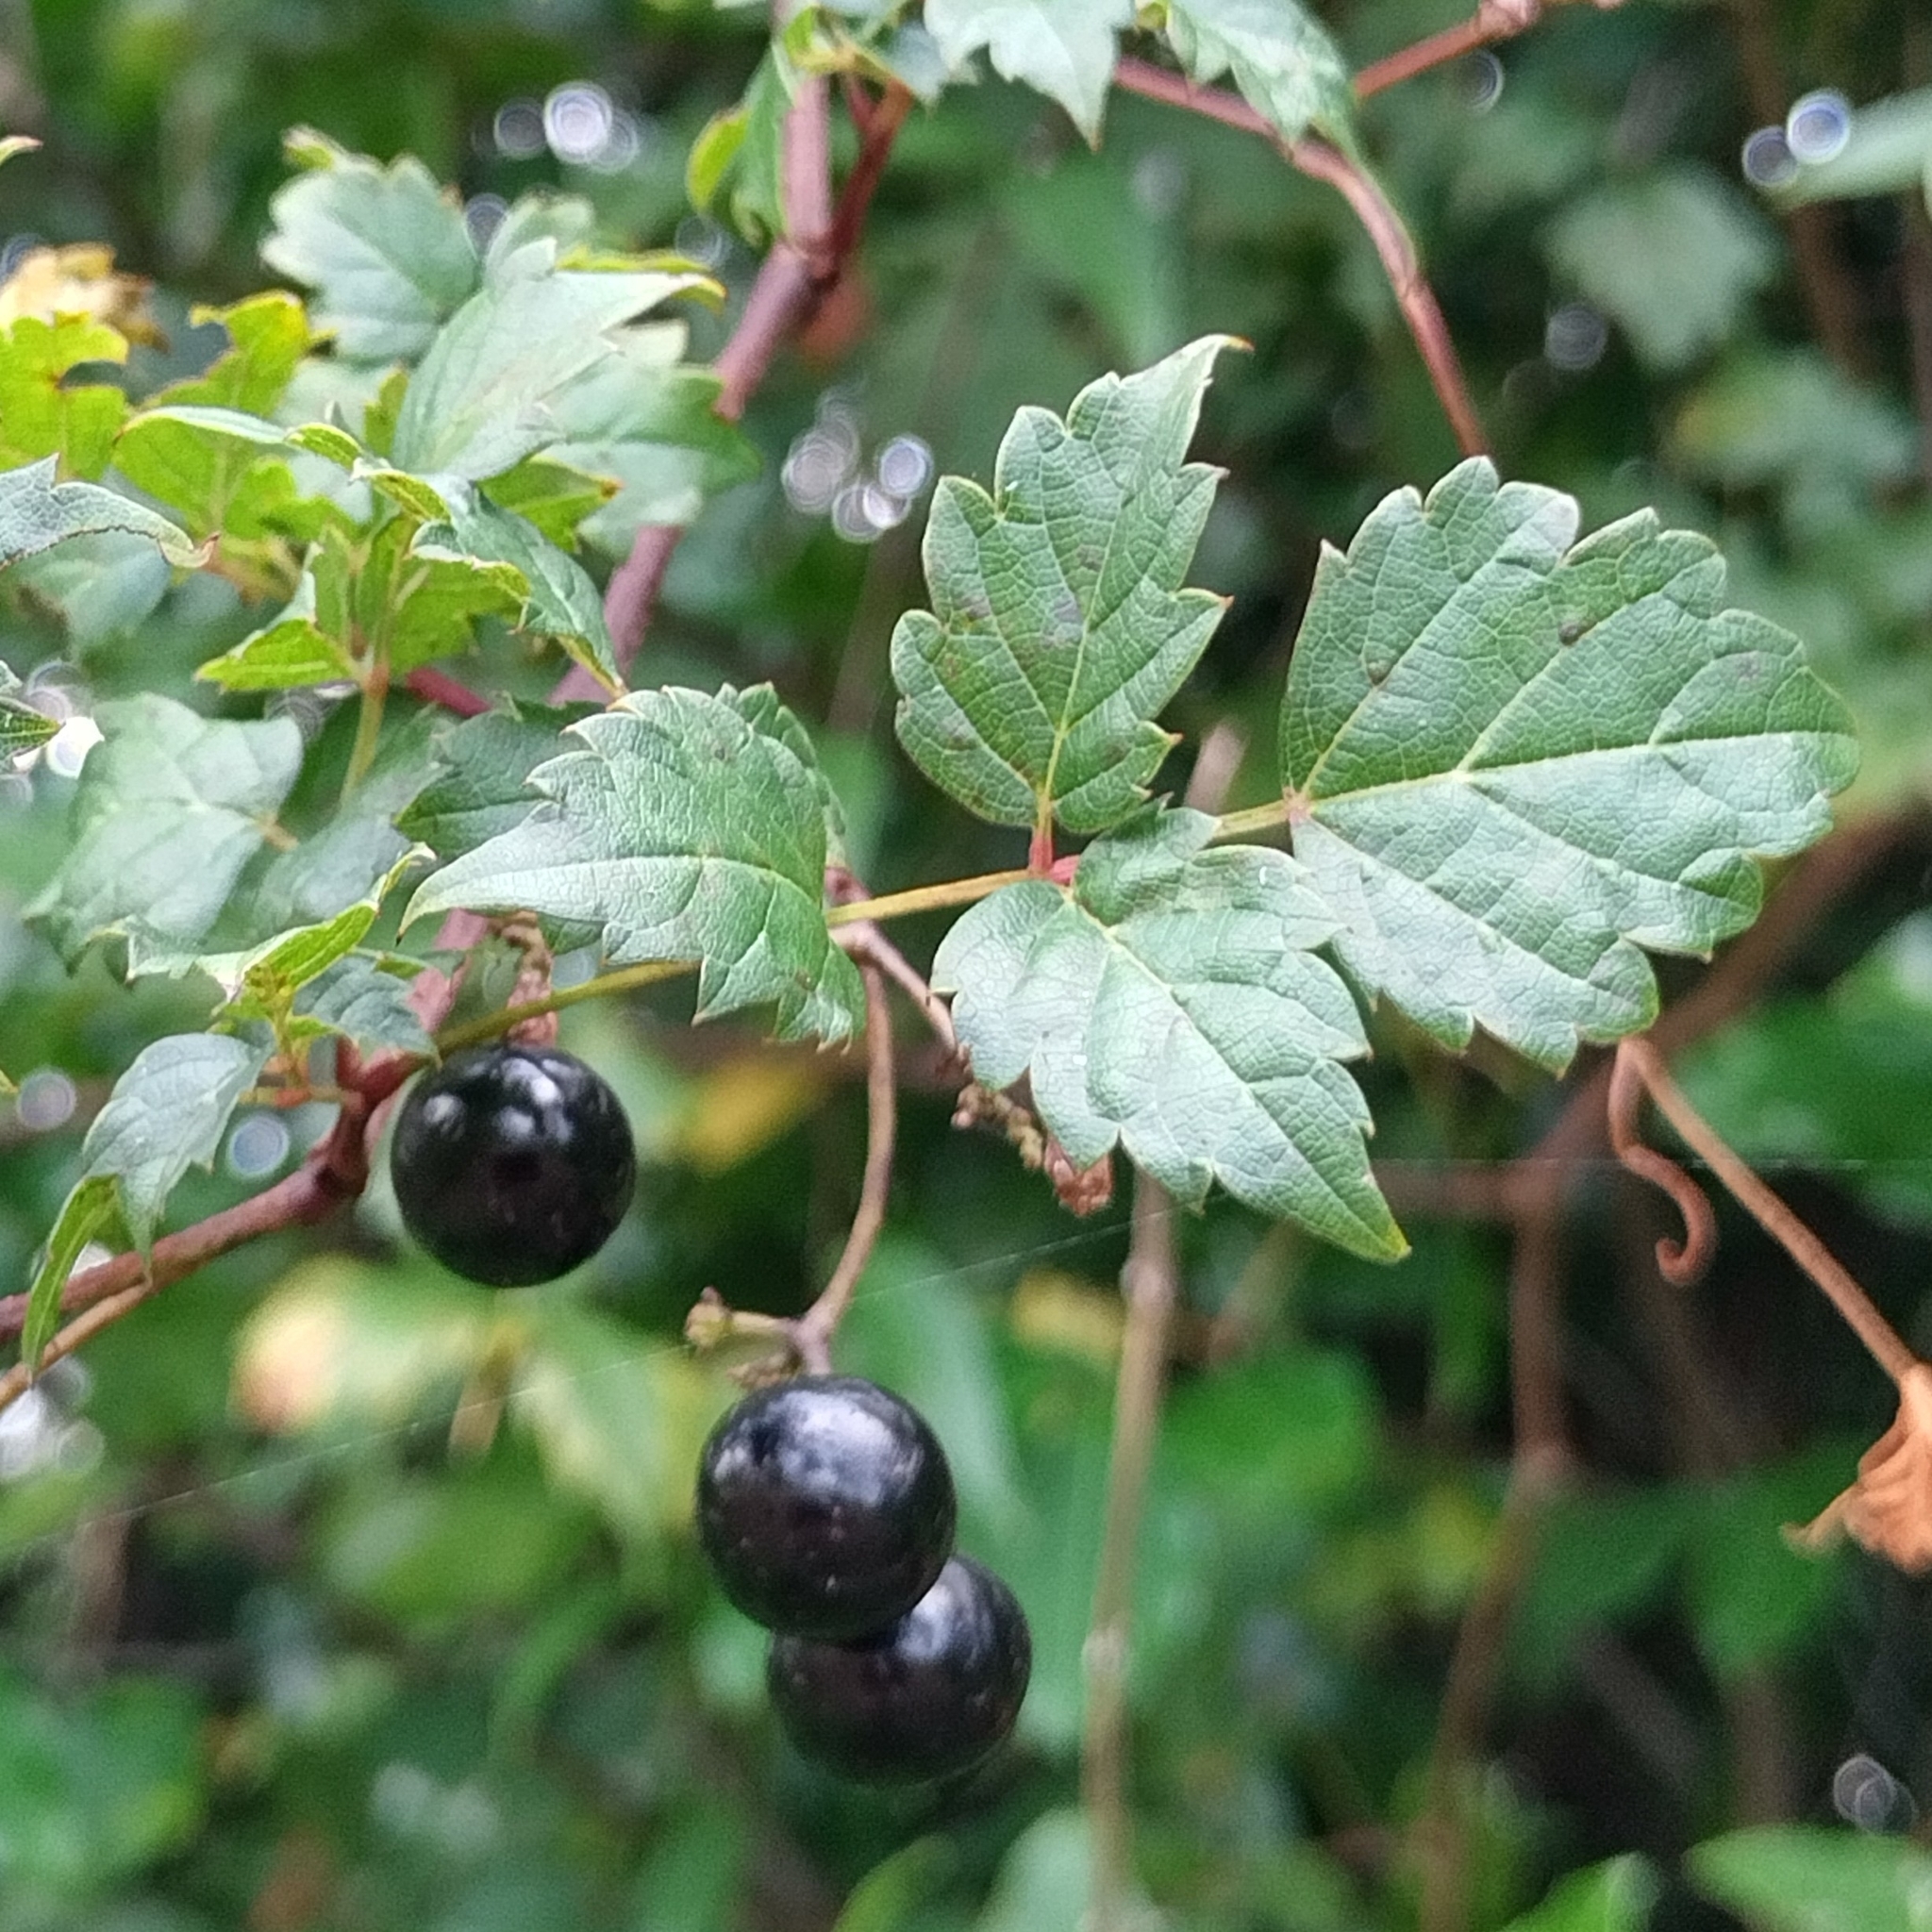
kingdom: Plantae
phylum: Tracheophyta
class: Magnoliopsida
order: Vitales
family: Vitaceae
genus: Nekemias
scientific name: Nekemias arborea
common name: Peppervine
